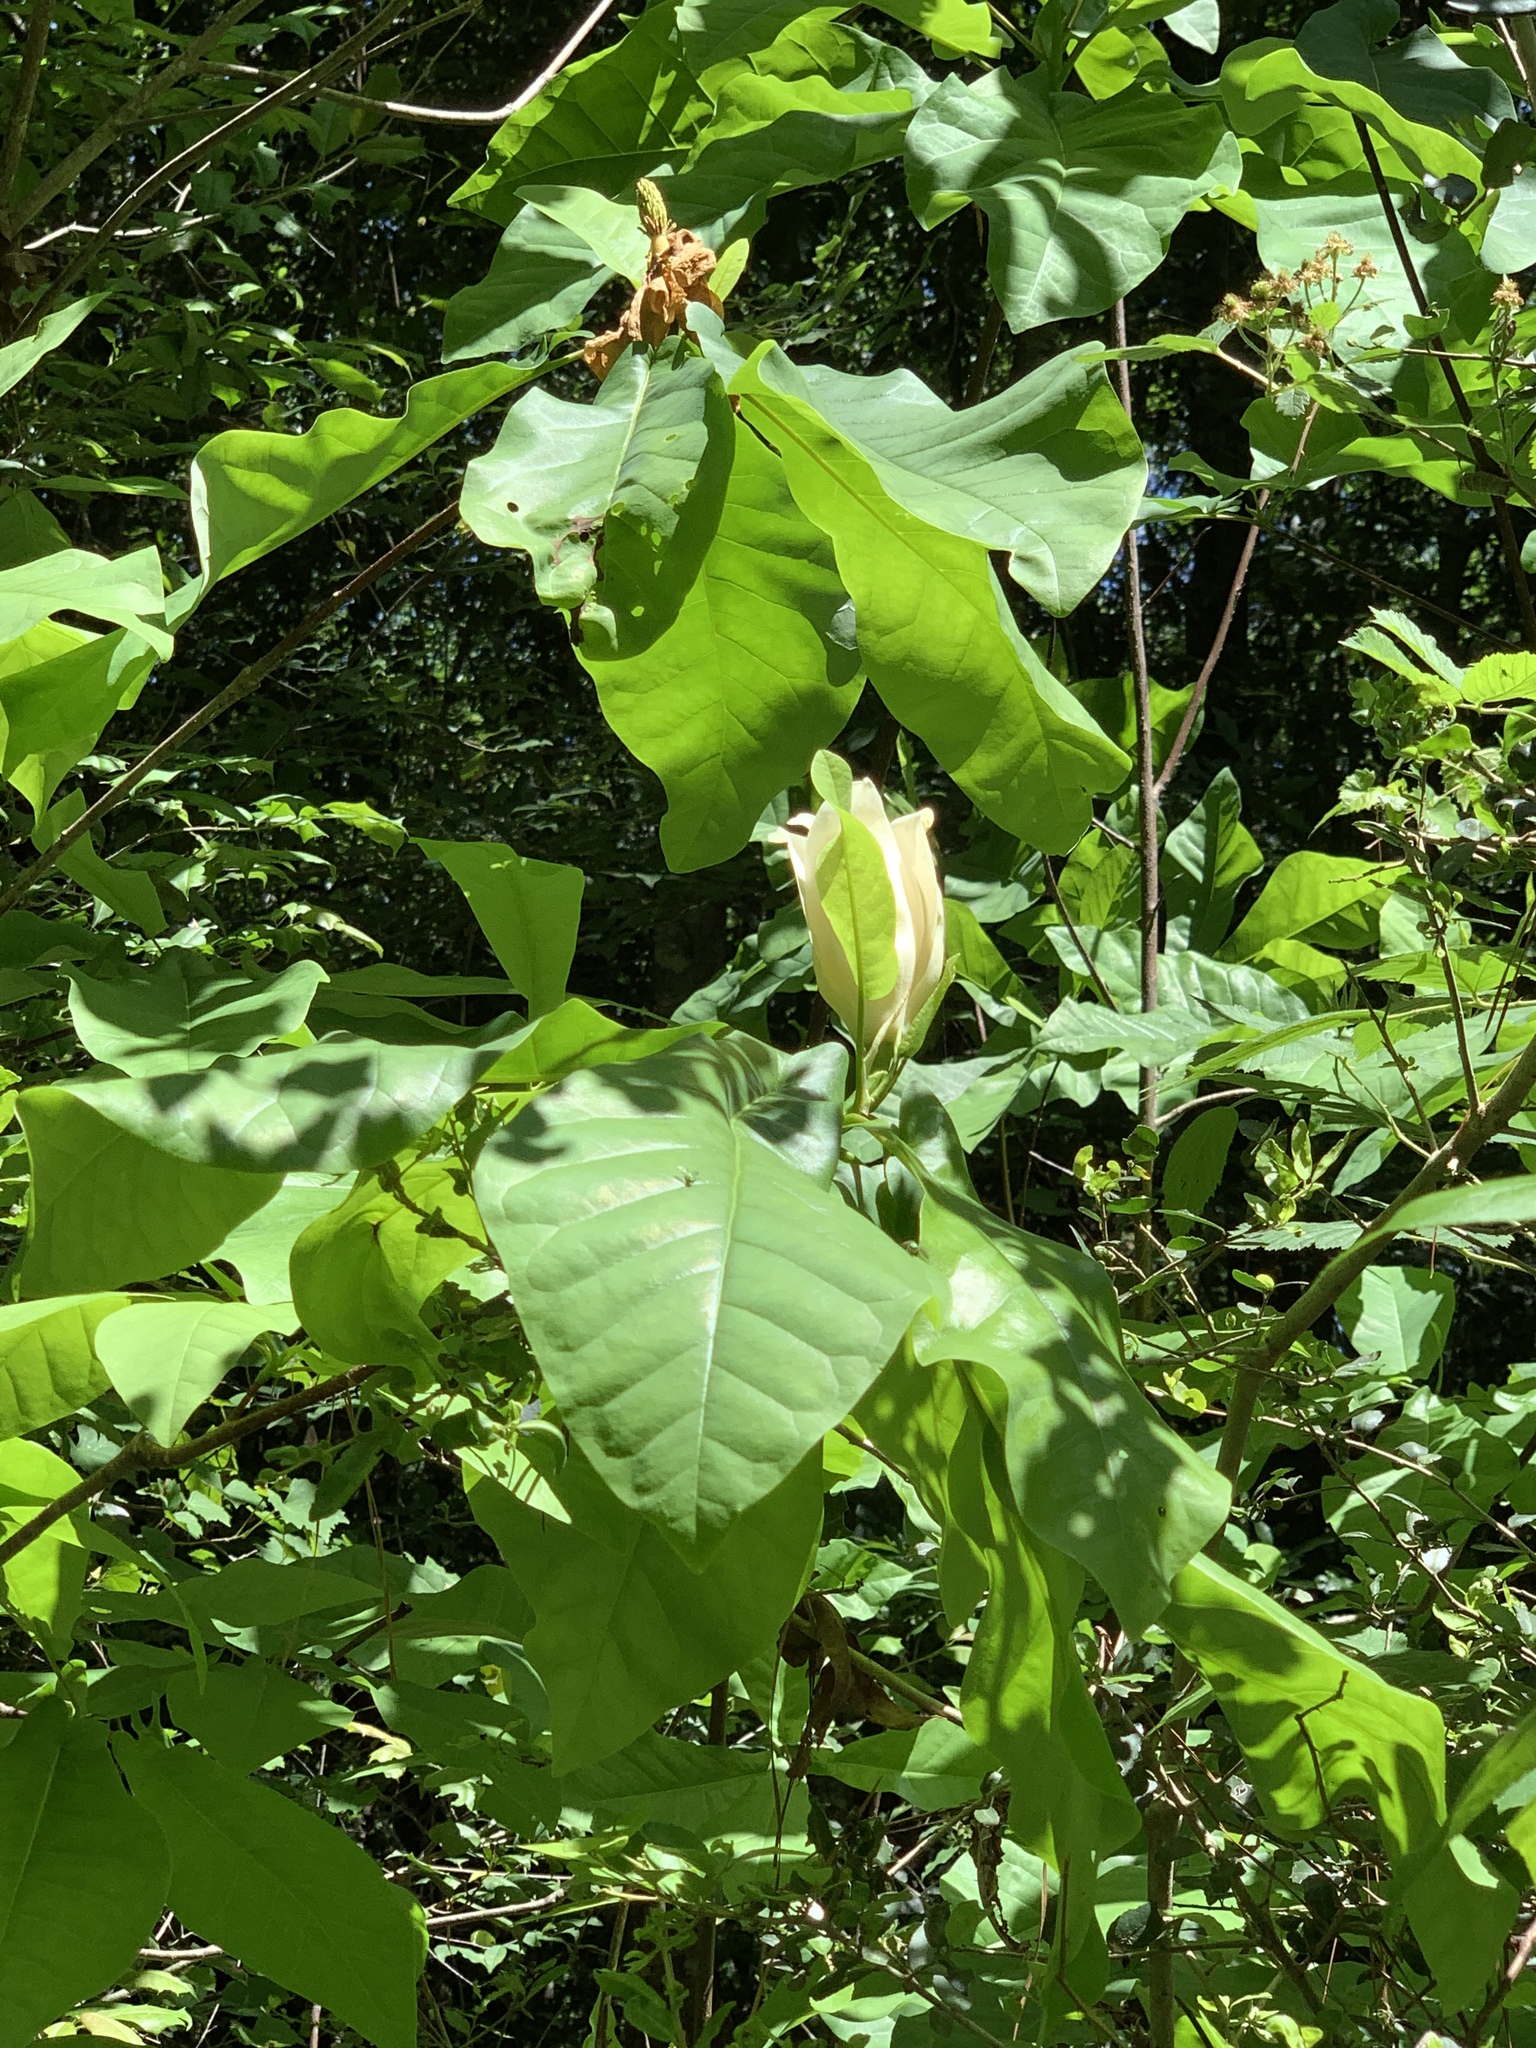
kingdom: Plantae
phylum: Tracheophyta
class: Magnoliopsida
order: Magnoliales
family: Magnoliaceae
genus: Magnolia
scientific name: Magnolia fraseri
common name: Fraser's magnolia
